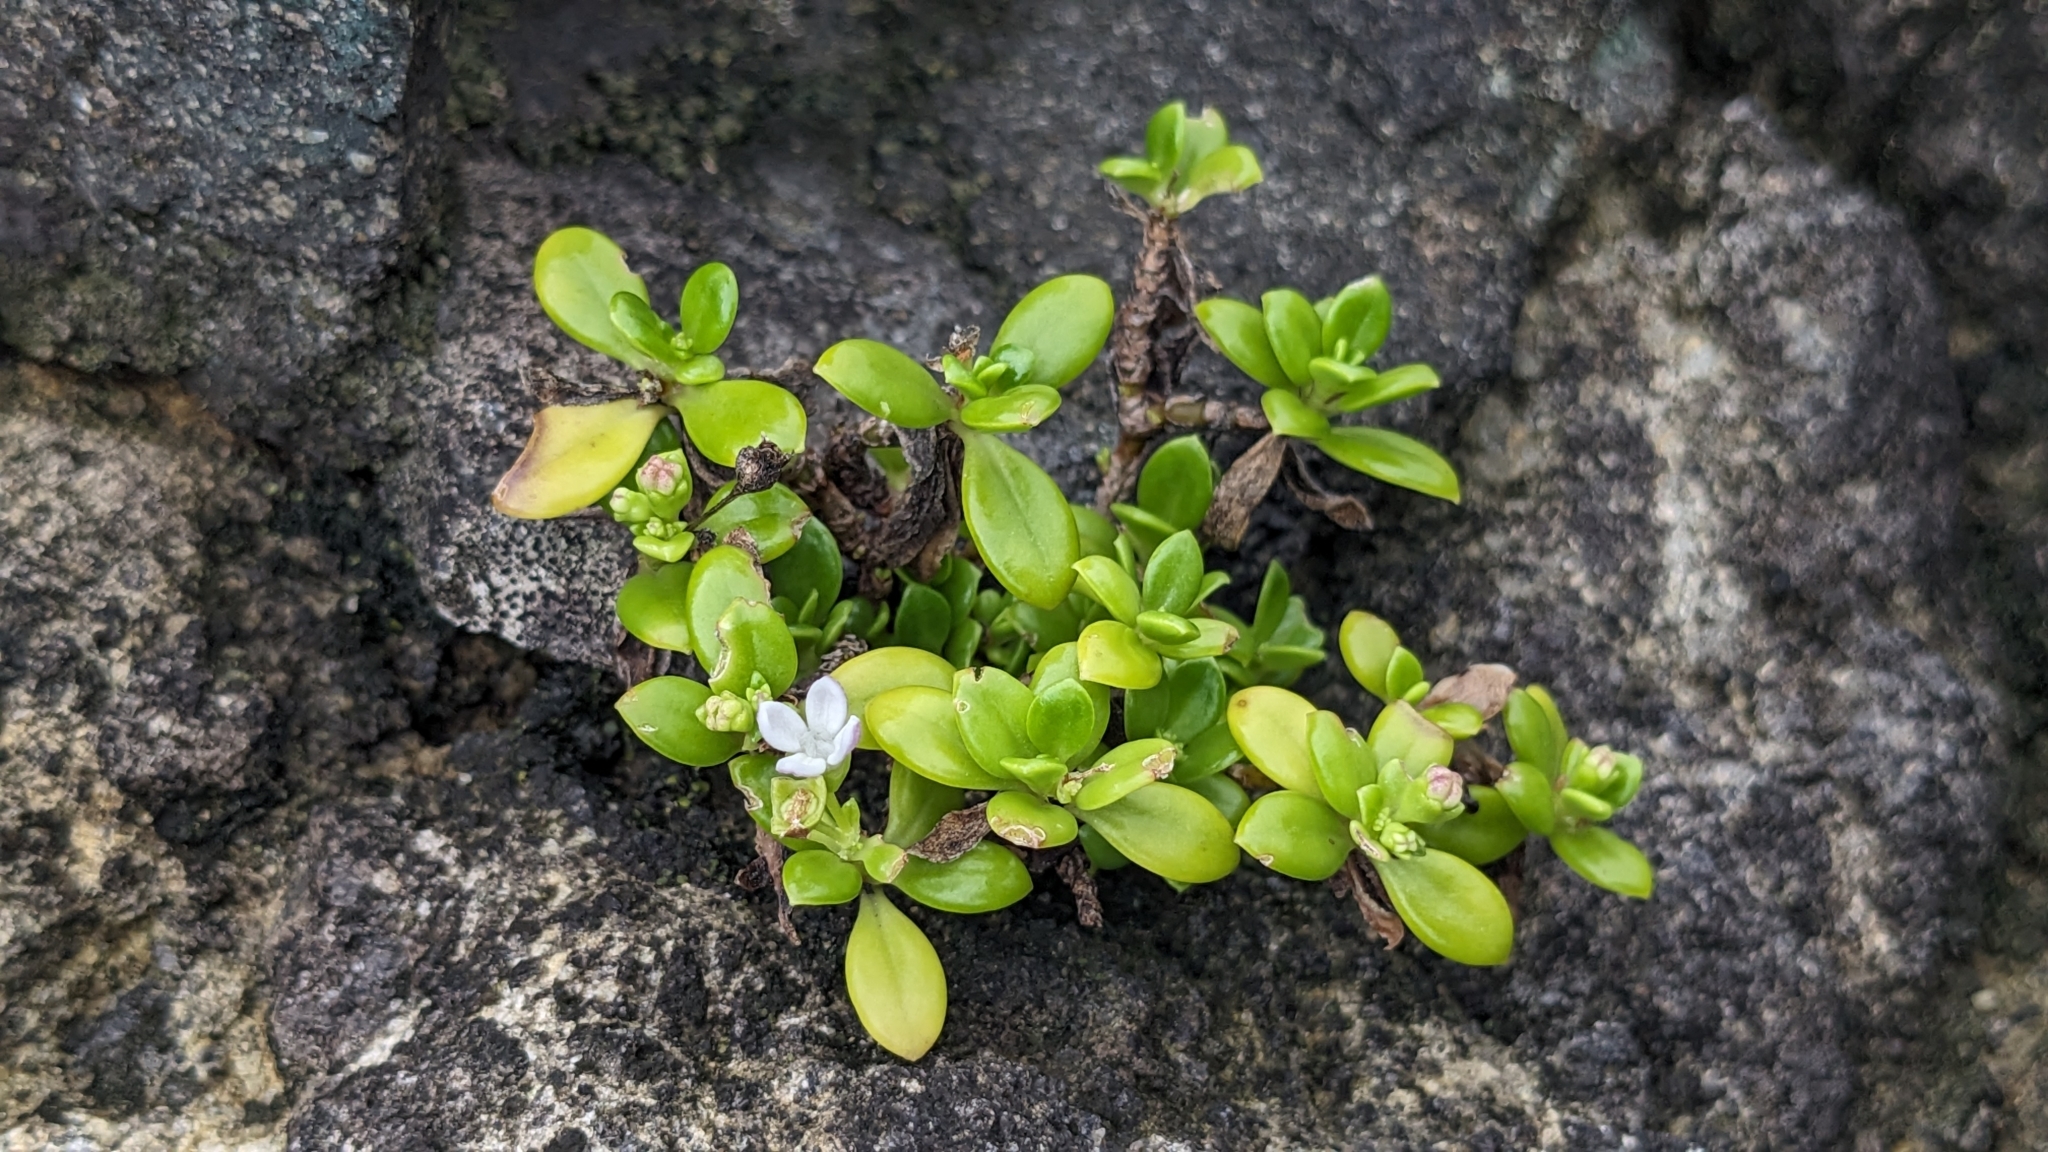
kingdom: Plantae
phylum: Tracheophyta
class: Magnoliopsida
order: Gentianales
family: Rubiaceae
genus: Leptopetalum
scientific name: Leptopetalum strigulosum
